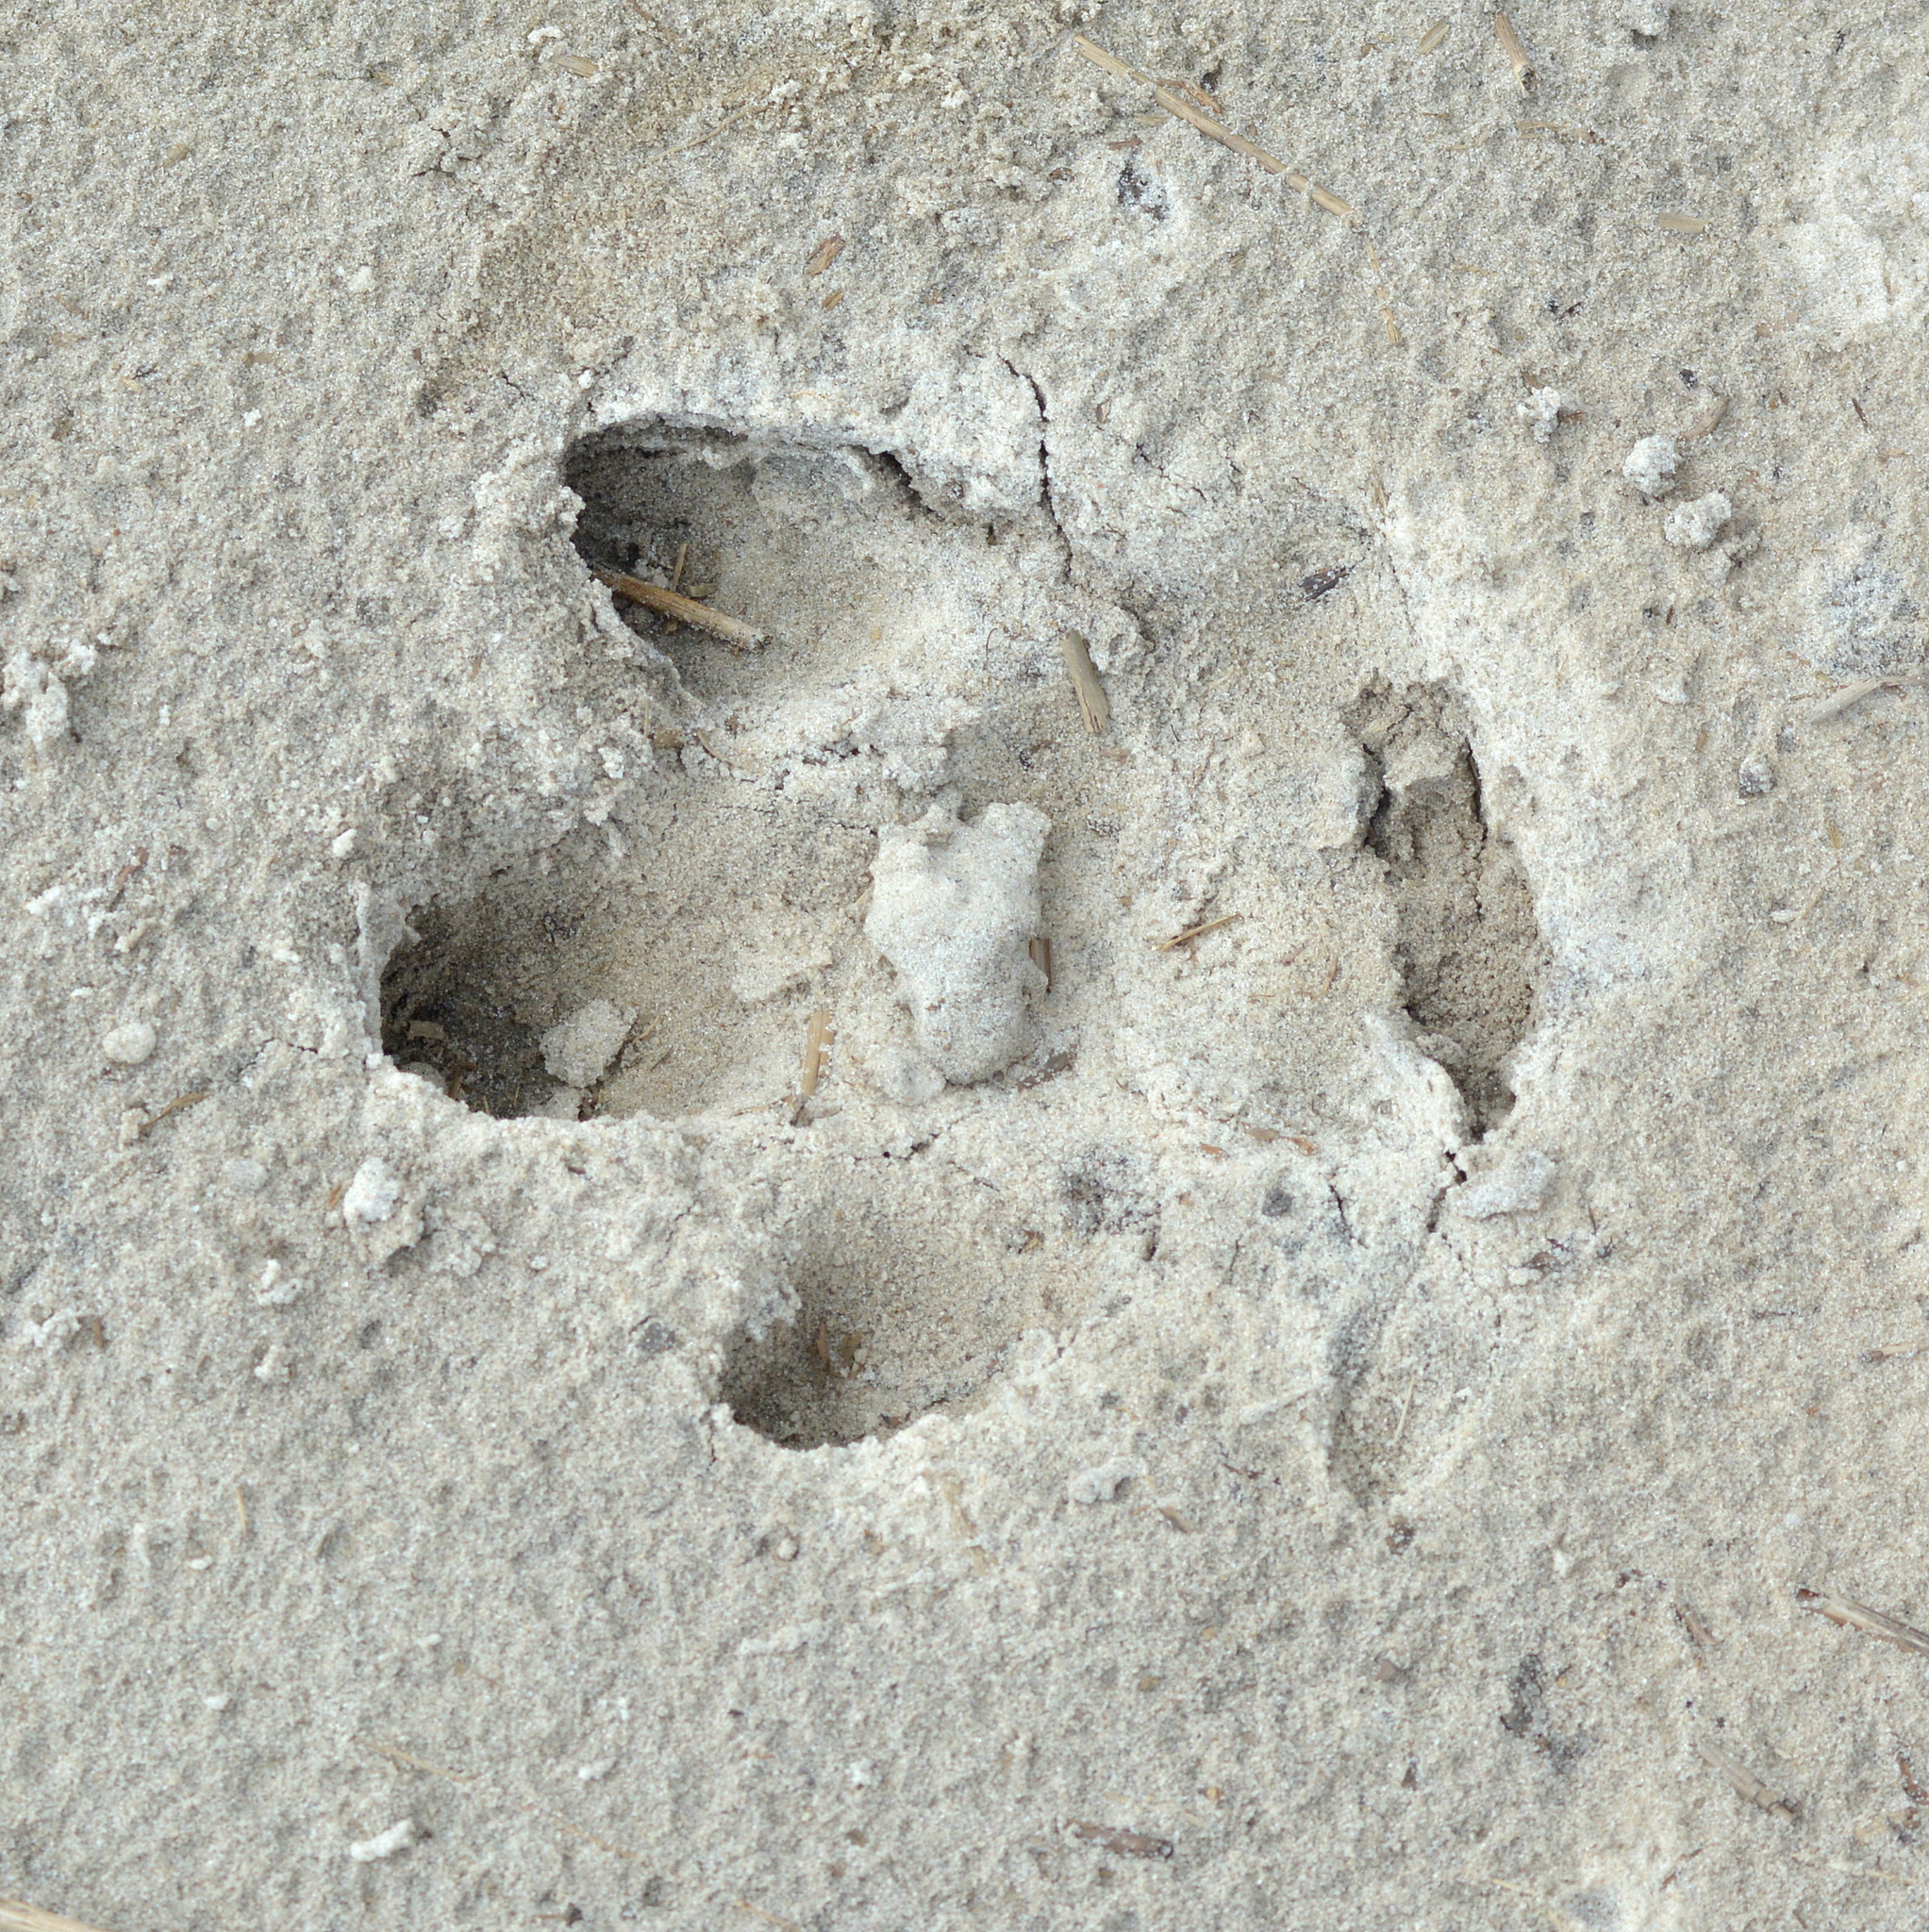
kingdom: Animalia
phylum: Chordata
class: Mammalia
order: Rodentia
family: Caviidae
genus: Hydrochoerus
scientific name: Hydrochoerus hydrochaeris
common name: Capybara
